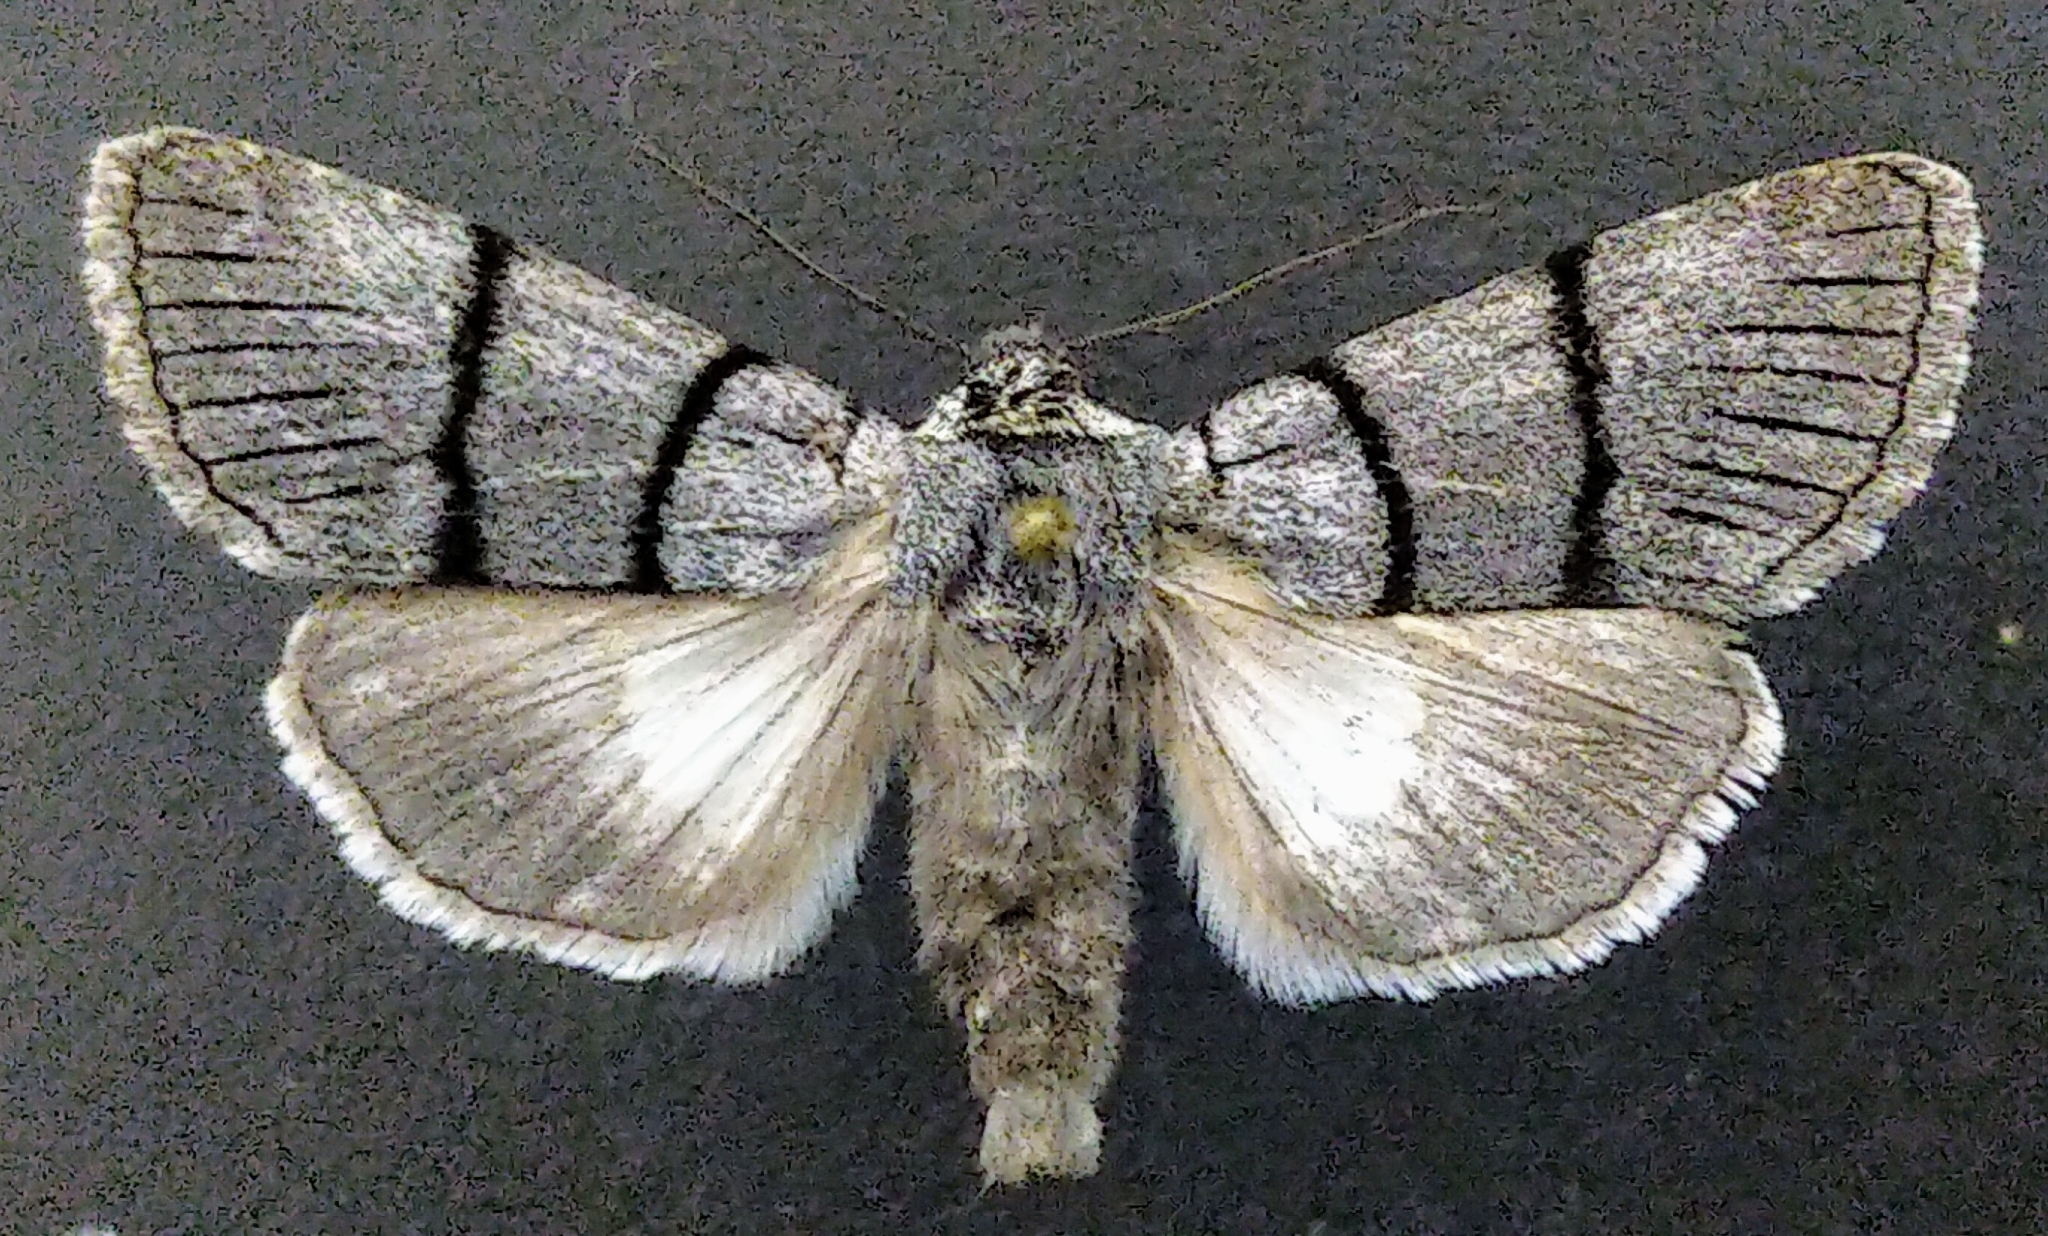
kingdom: Animalia
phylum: Arthropoda
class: Insecta
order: Lepidoptera
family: Noctuidae
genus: Sympistis
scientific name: Sympistis barnesii
